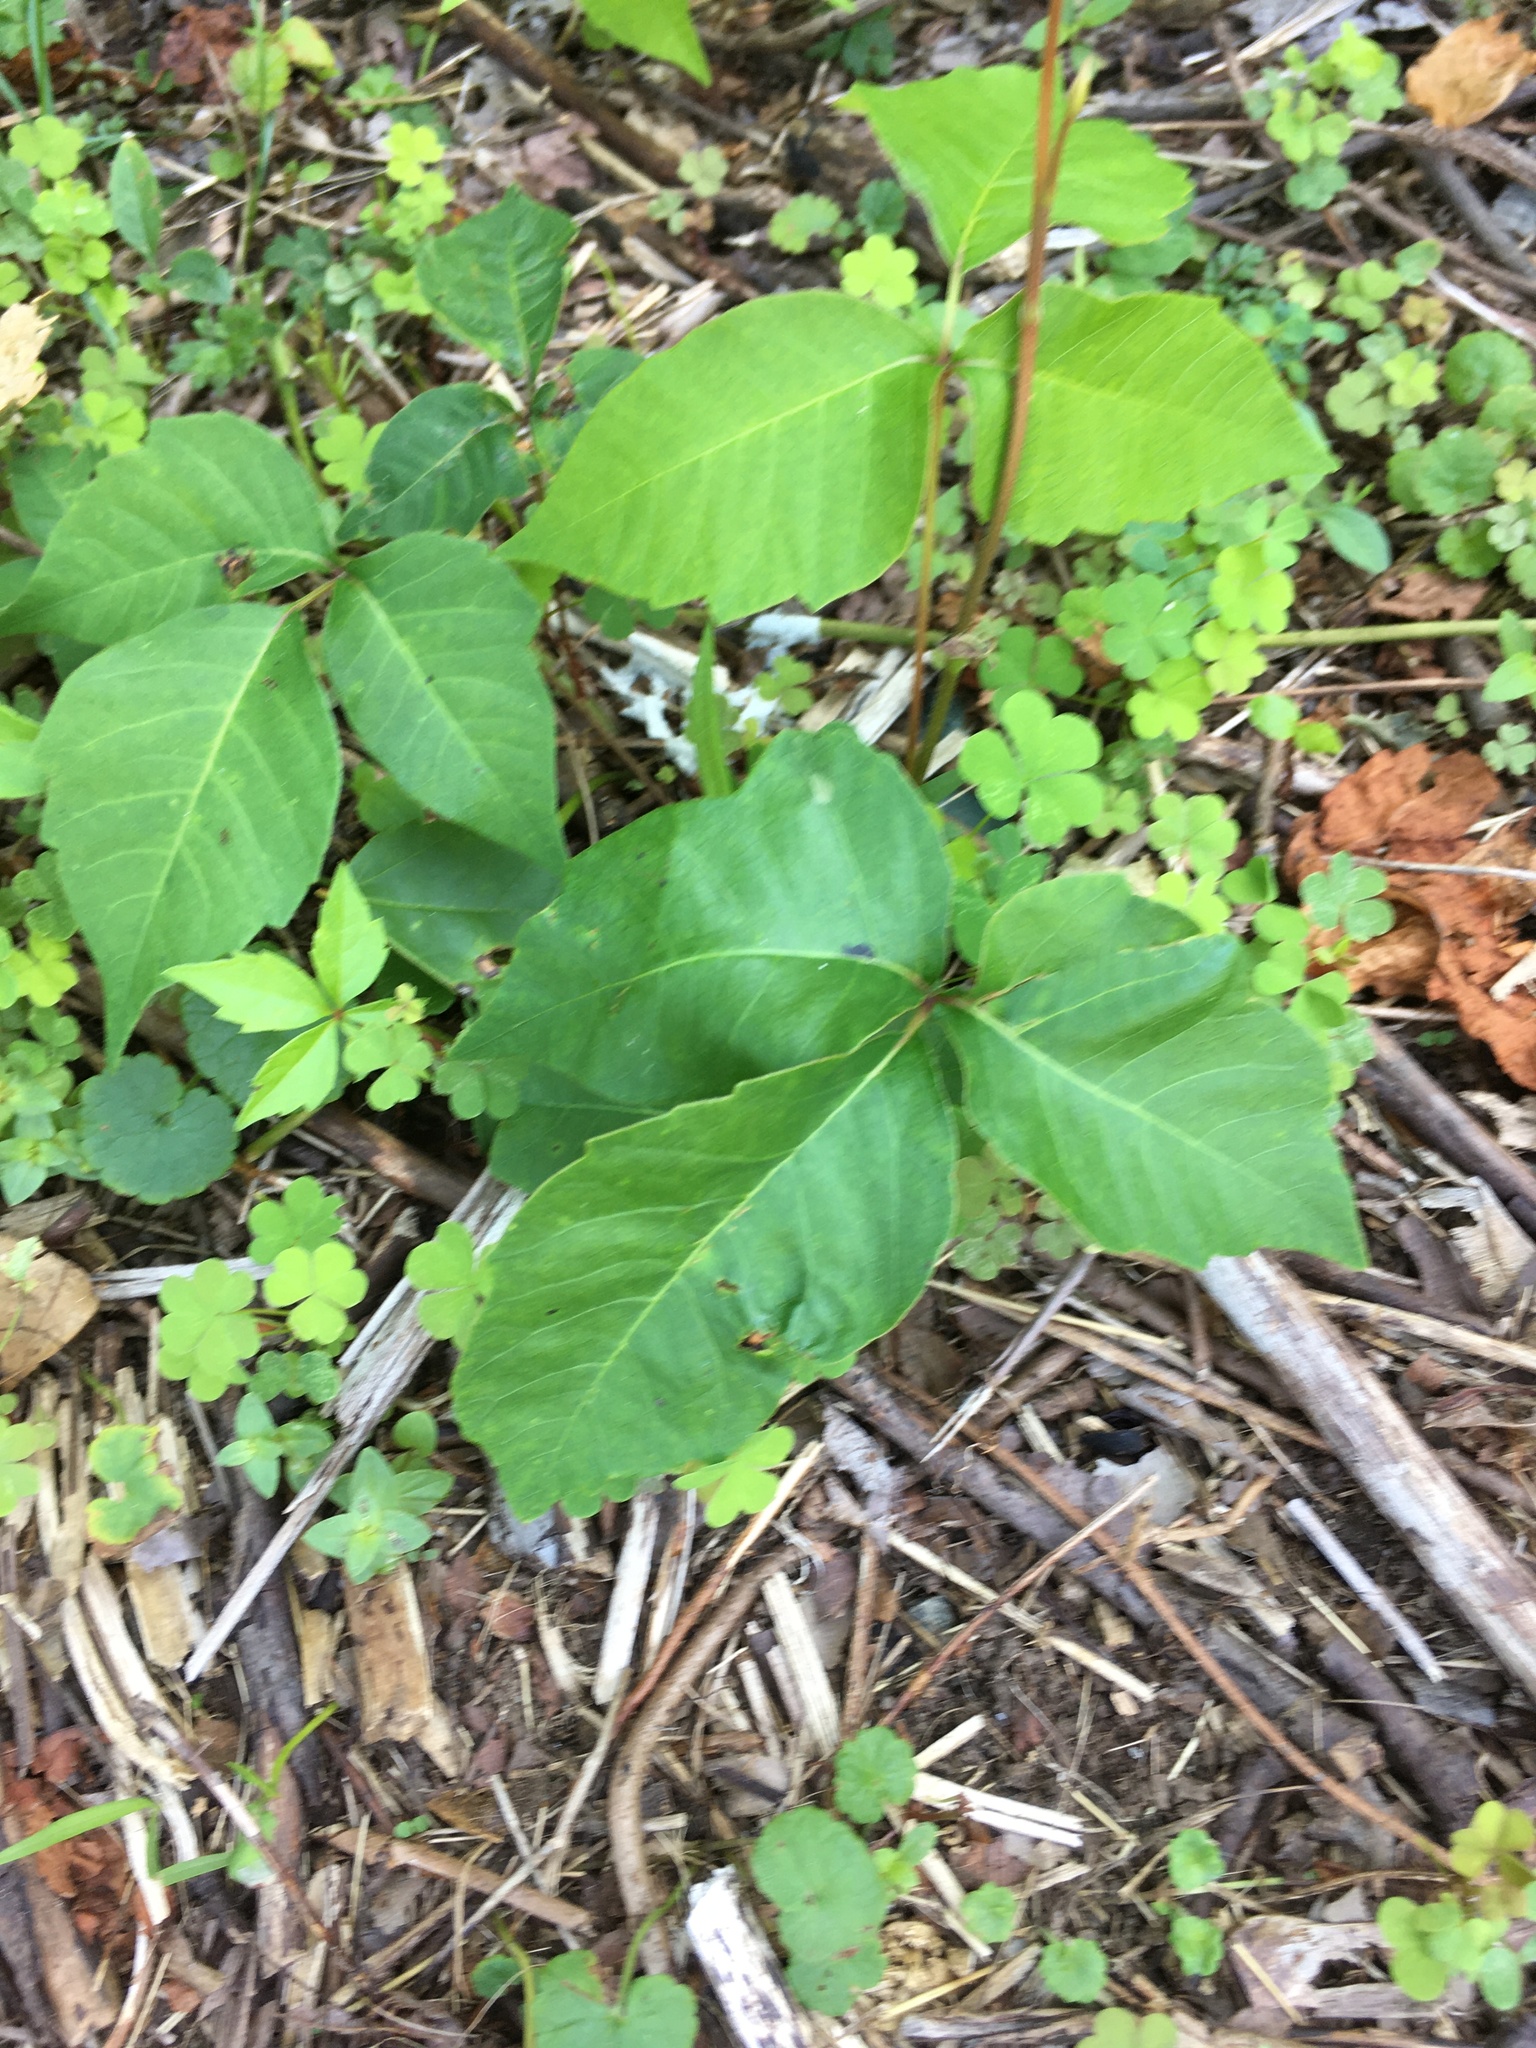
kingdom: Plantae
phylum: Tracheophyta
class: Magnoliopsida
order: Sapindales
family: Anacardiaceae
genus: Toxicodendron
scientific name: Toxicodendron radicans
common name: Poison ivy
